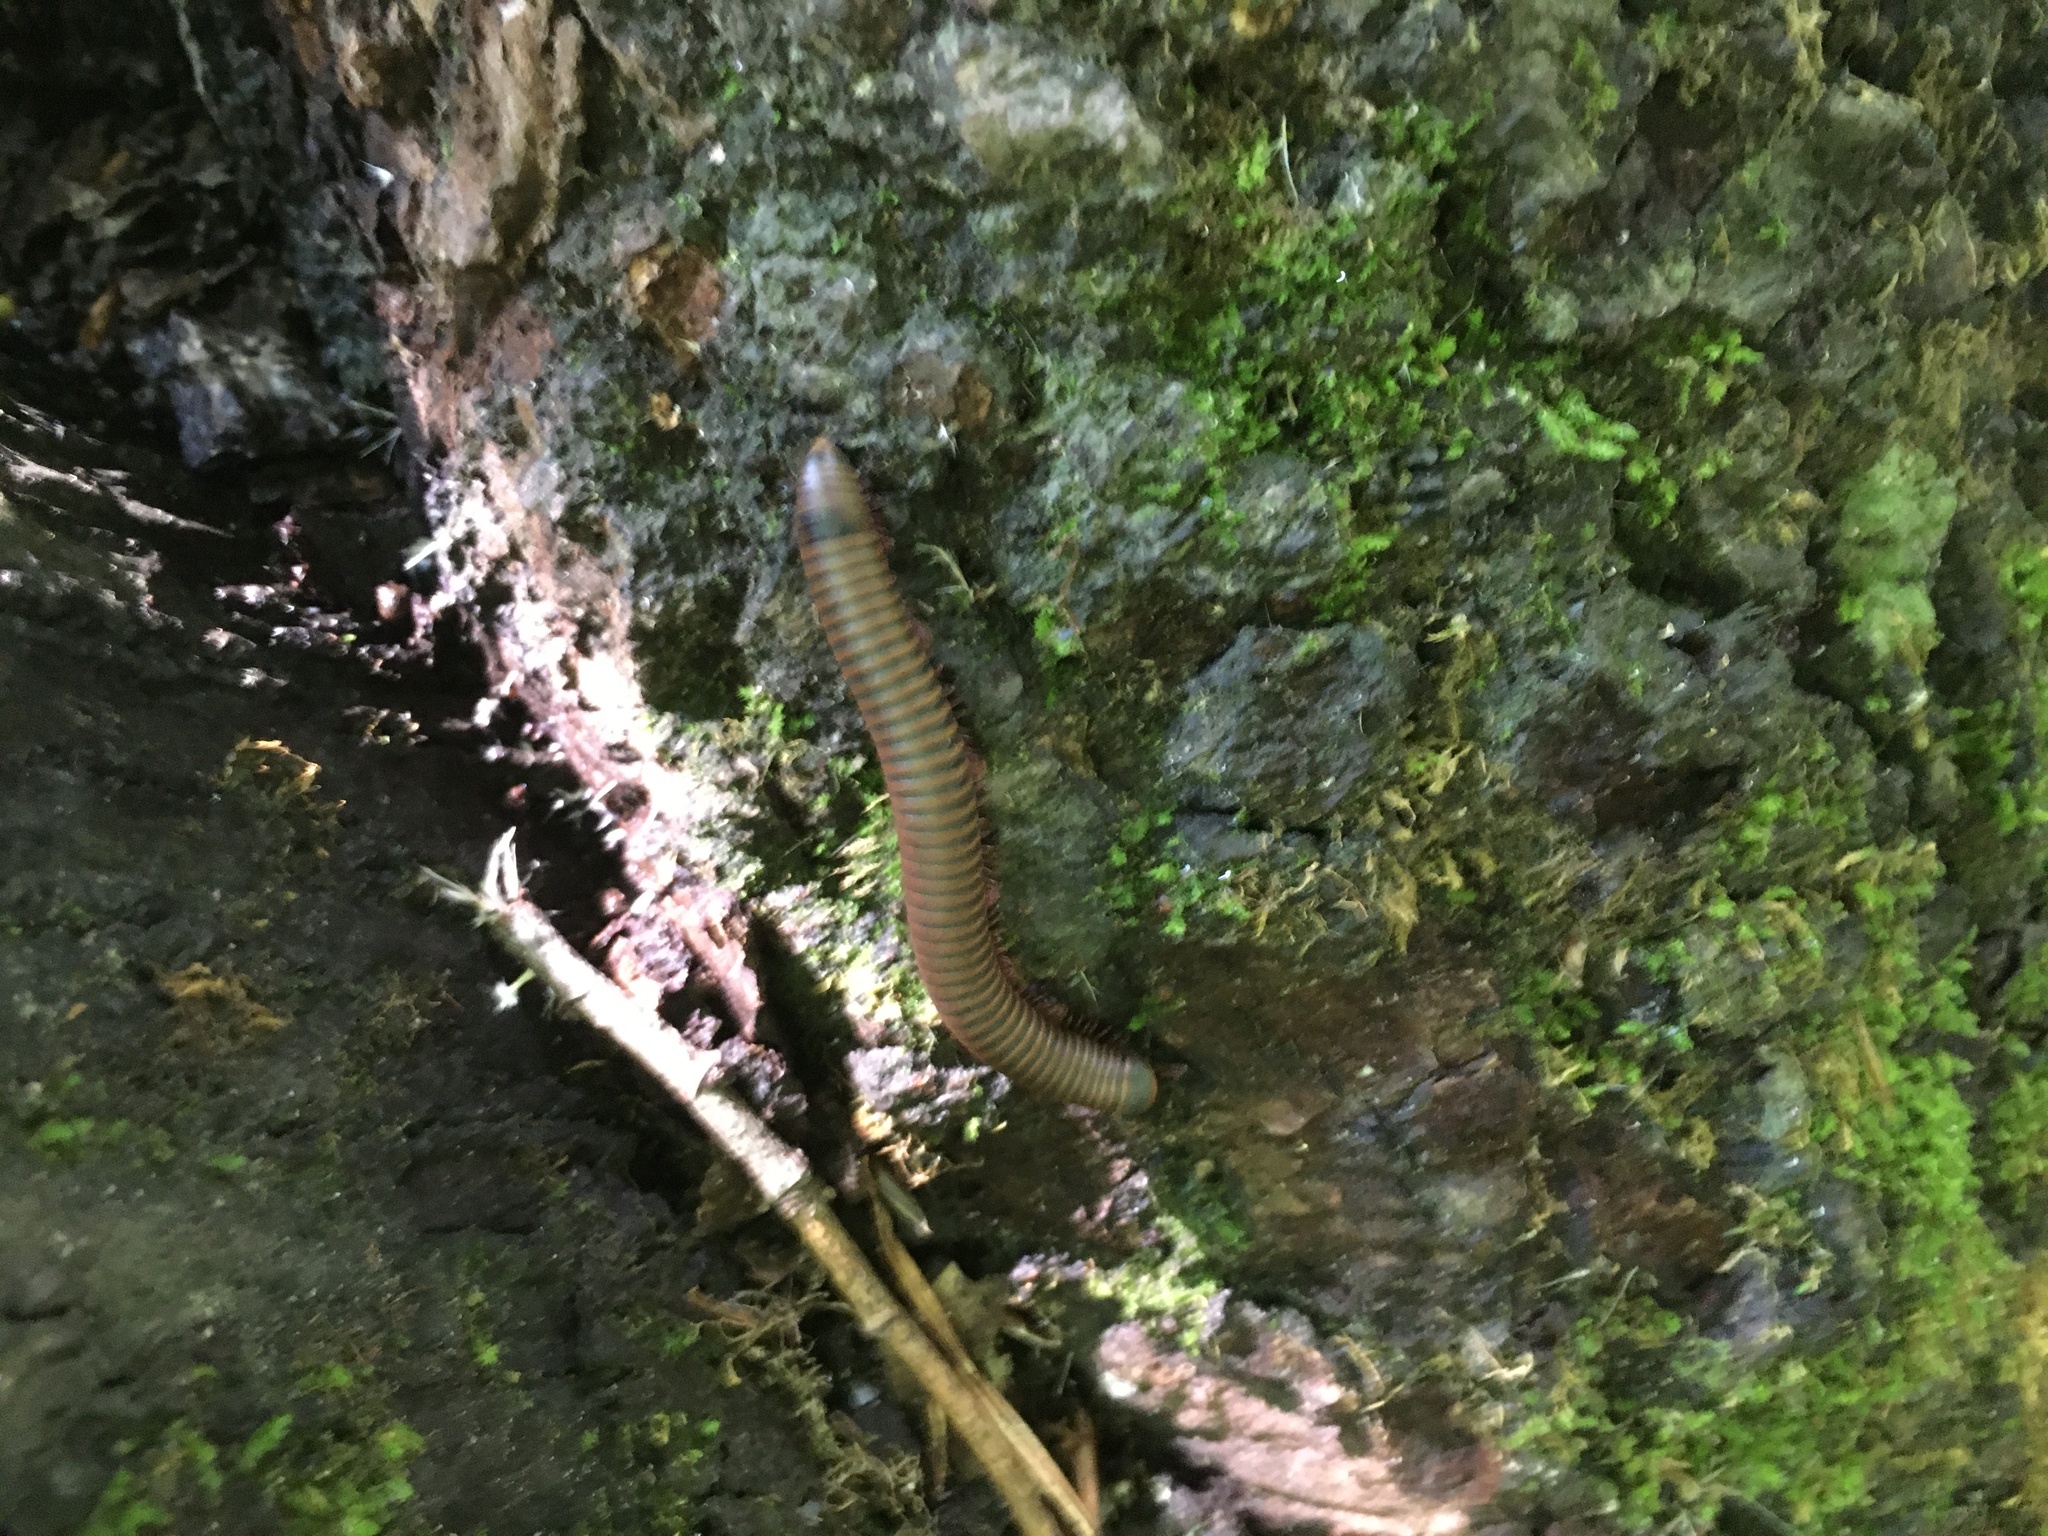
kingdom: Animalia
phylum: Arthropoda
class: Diplopoda
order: Spirobolida
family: Spirobolidae
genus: Narceus
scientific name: Narceus
